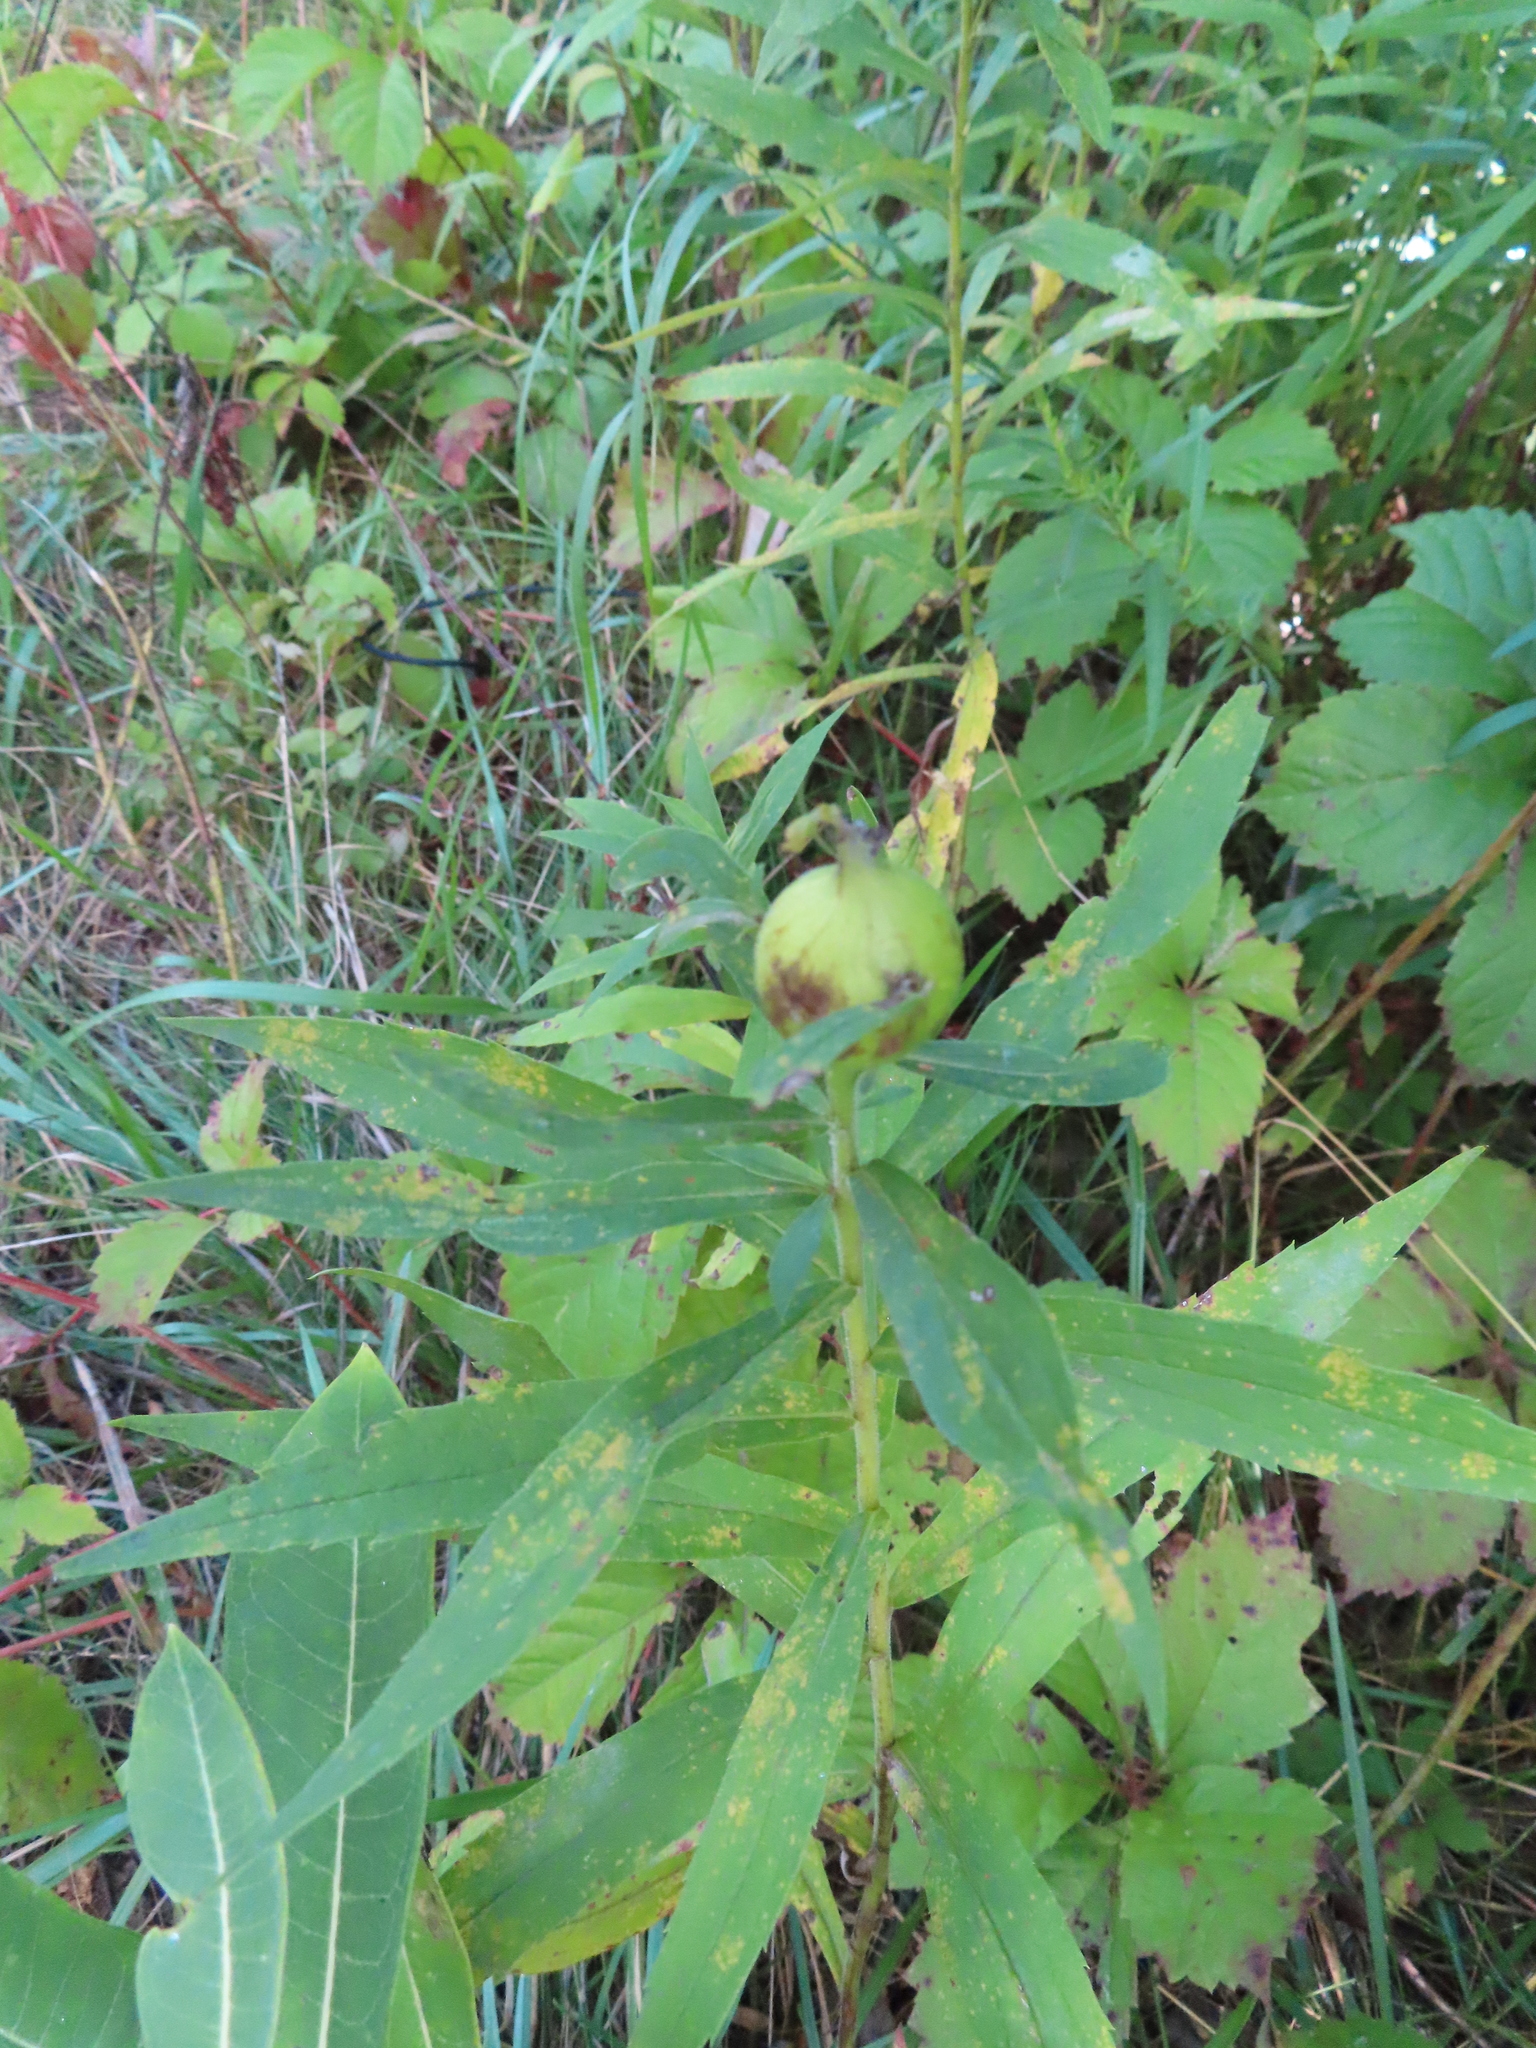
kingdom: Animalia
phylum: Arthropoda
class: Insecta
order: Diptera
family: Tephritidae
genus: Eurosta
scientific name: Eurosta solidaginis
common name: Goldenrod gall fly
